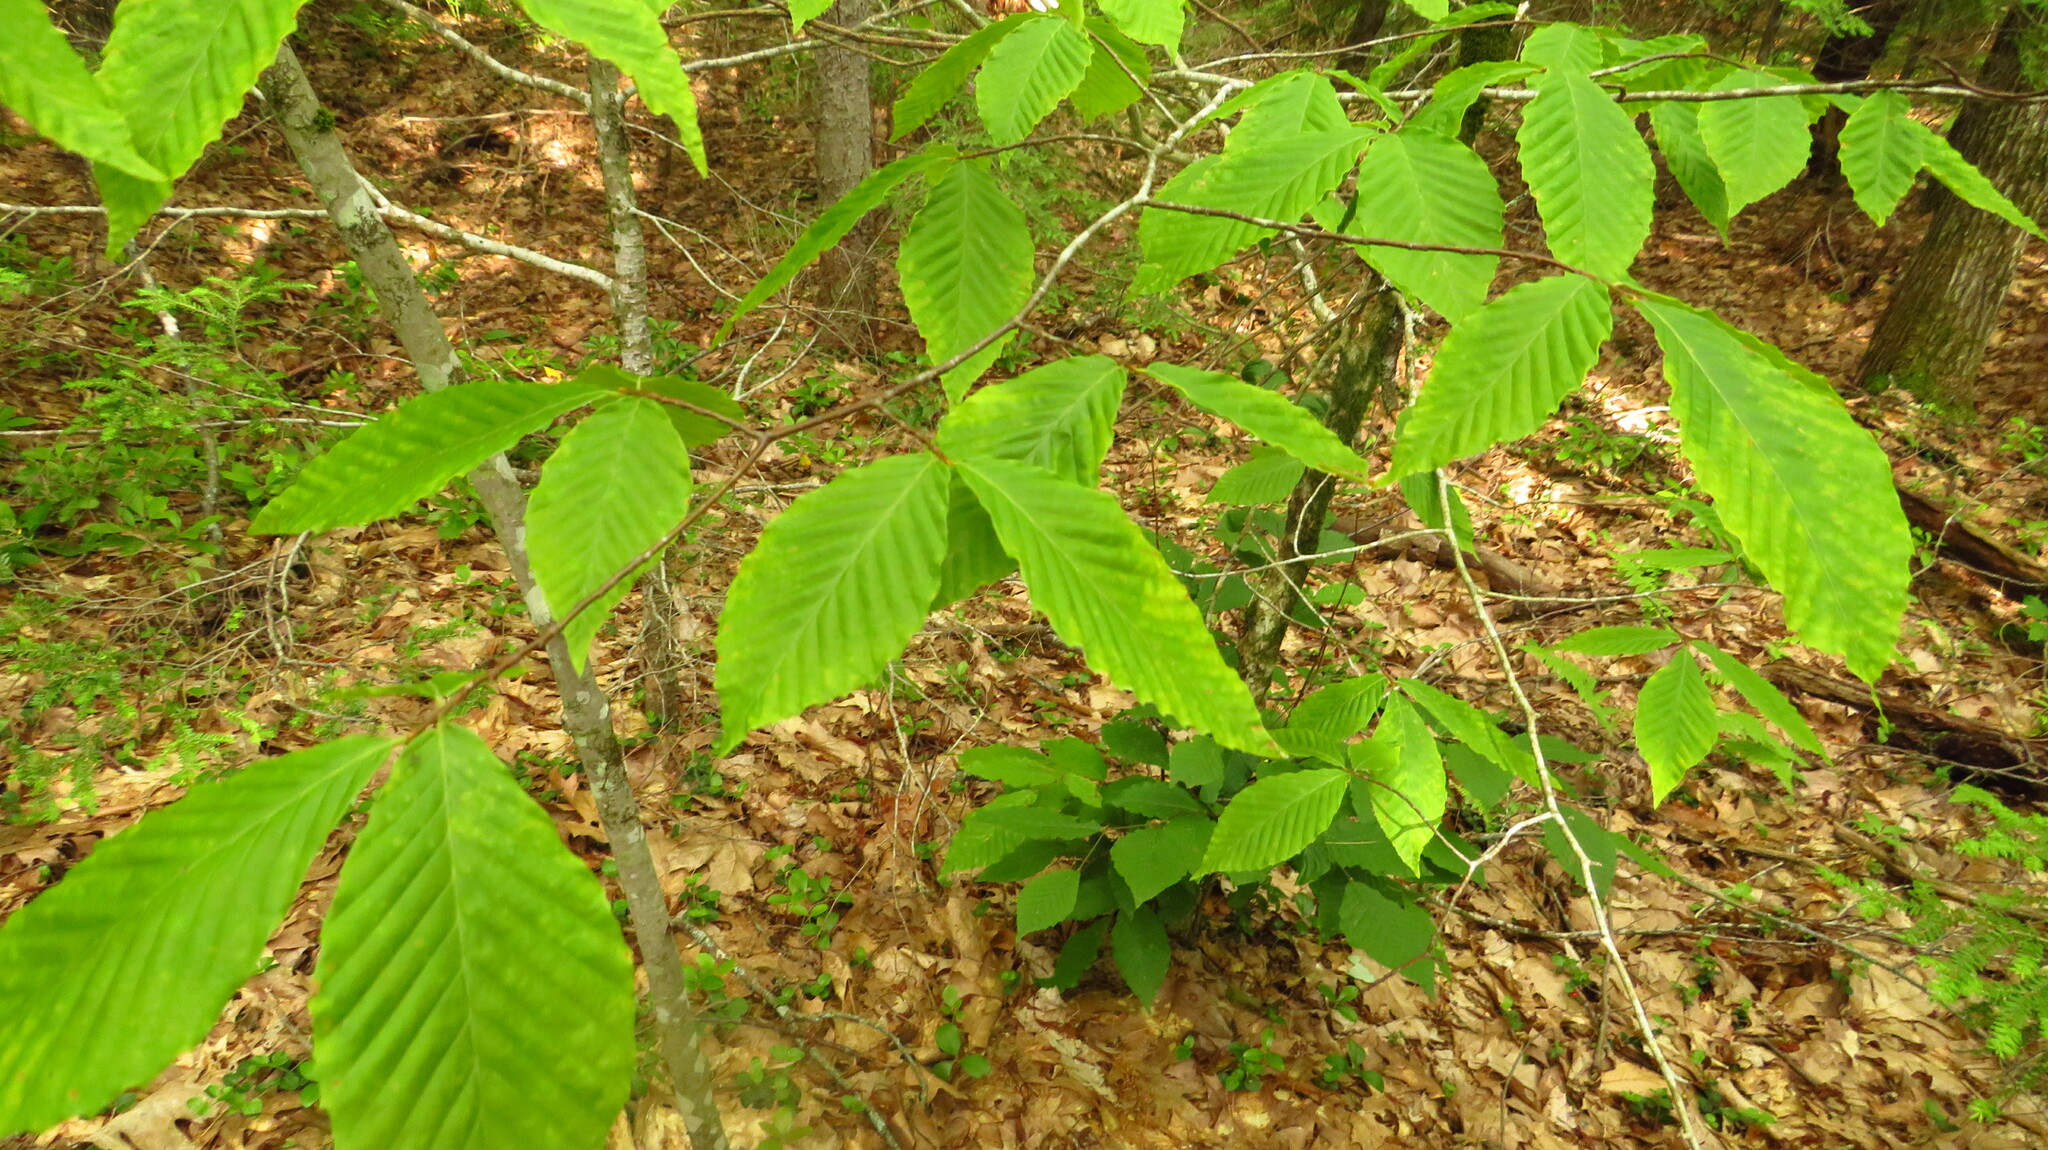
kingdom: Plantae
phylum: Tracheophyta
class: Magnoliopsida
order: Fagales
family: Fagaceae
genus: Fagus
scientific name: Fagus grandifolia
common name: American beech
